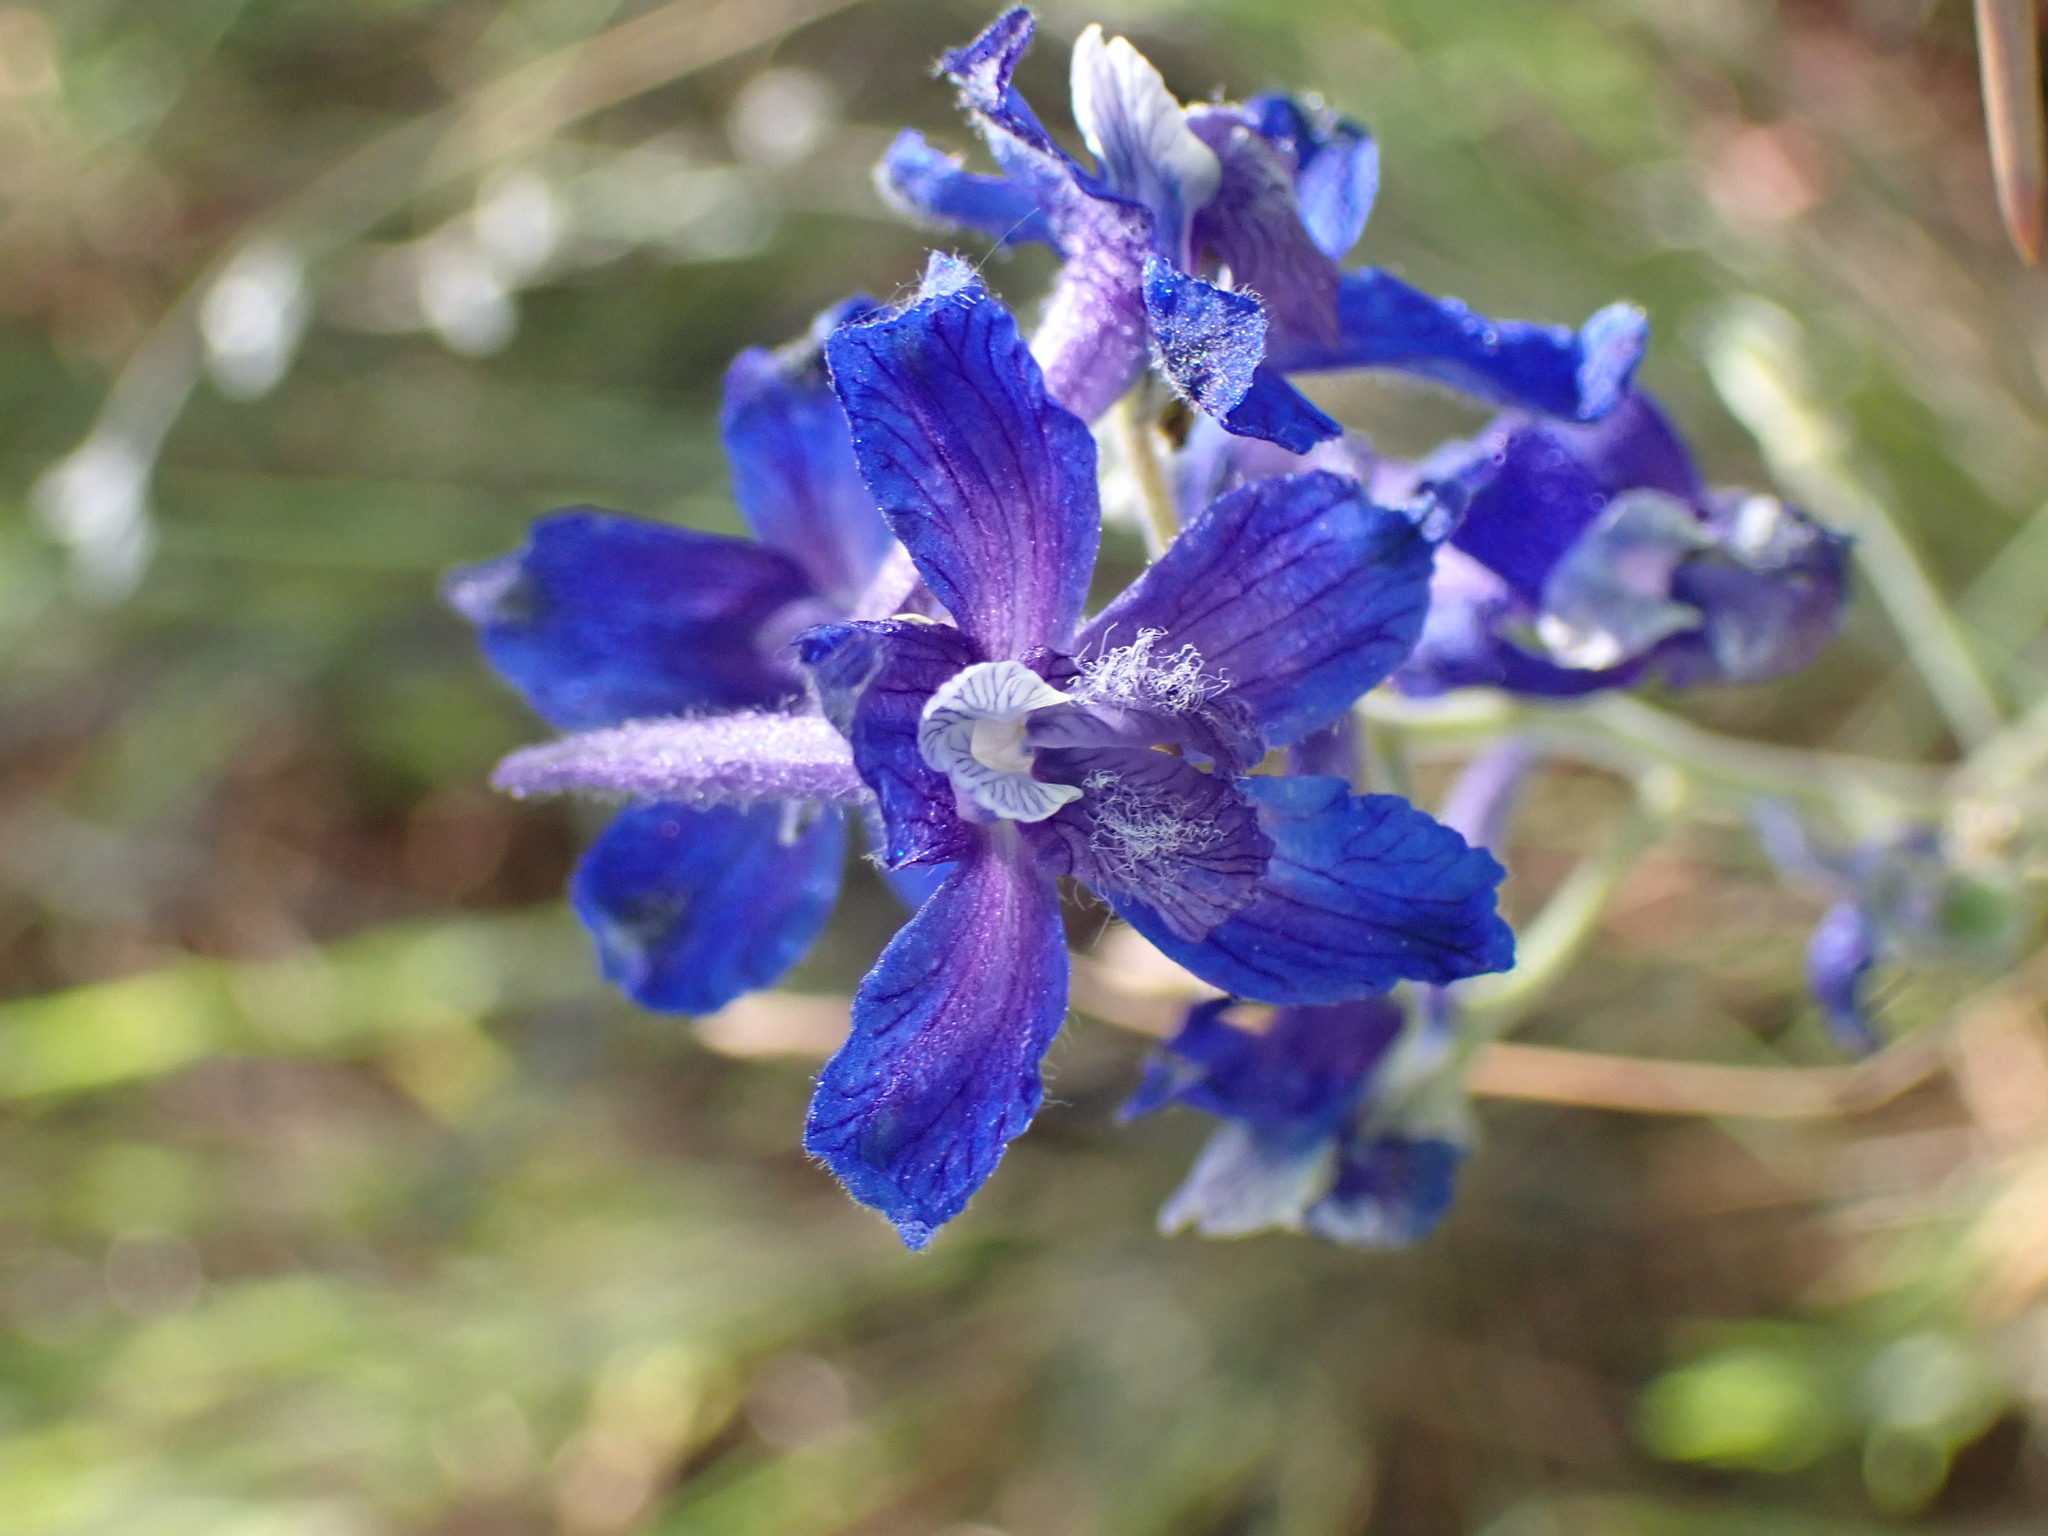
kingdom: Plantae
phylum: Tracheophyta
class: Magnoliopsida
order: Ranunculales
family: Ranunculaceae
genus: Delphinium
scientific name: Delphinium nuttallianum
